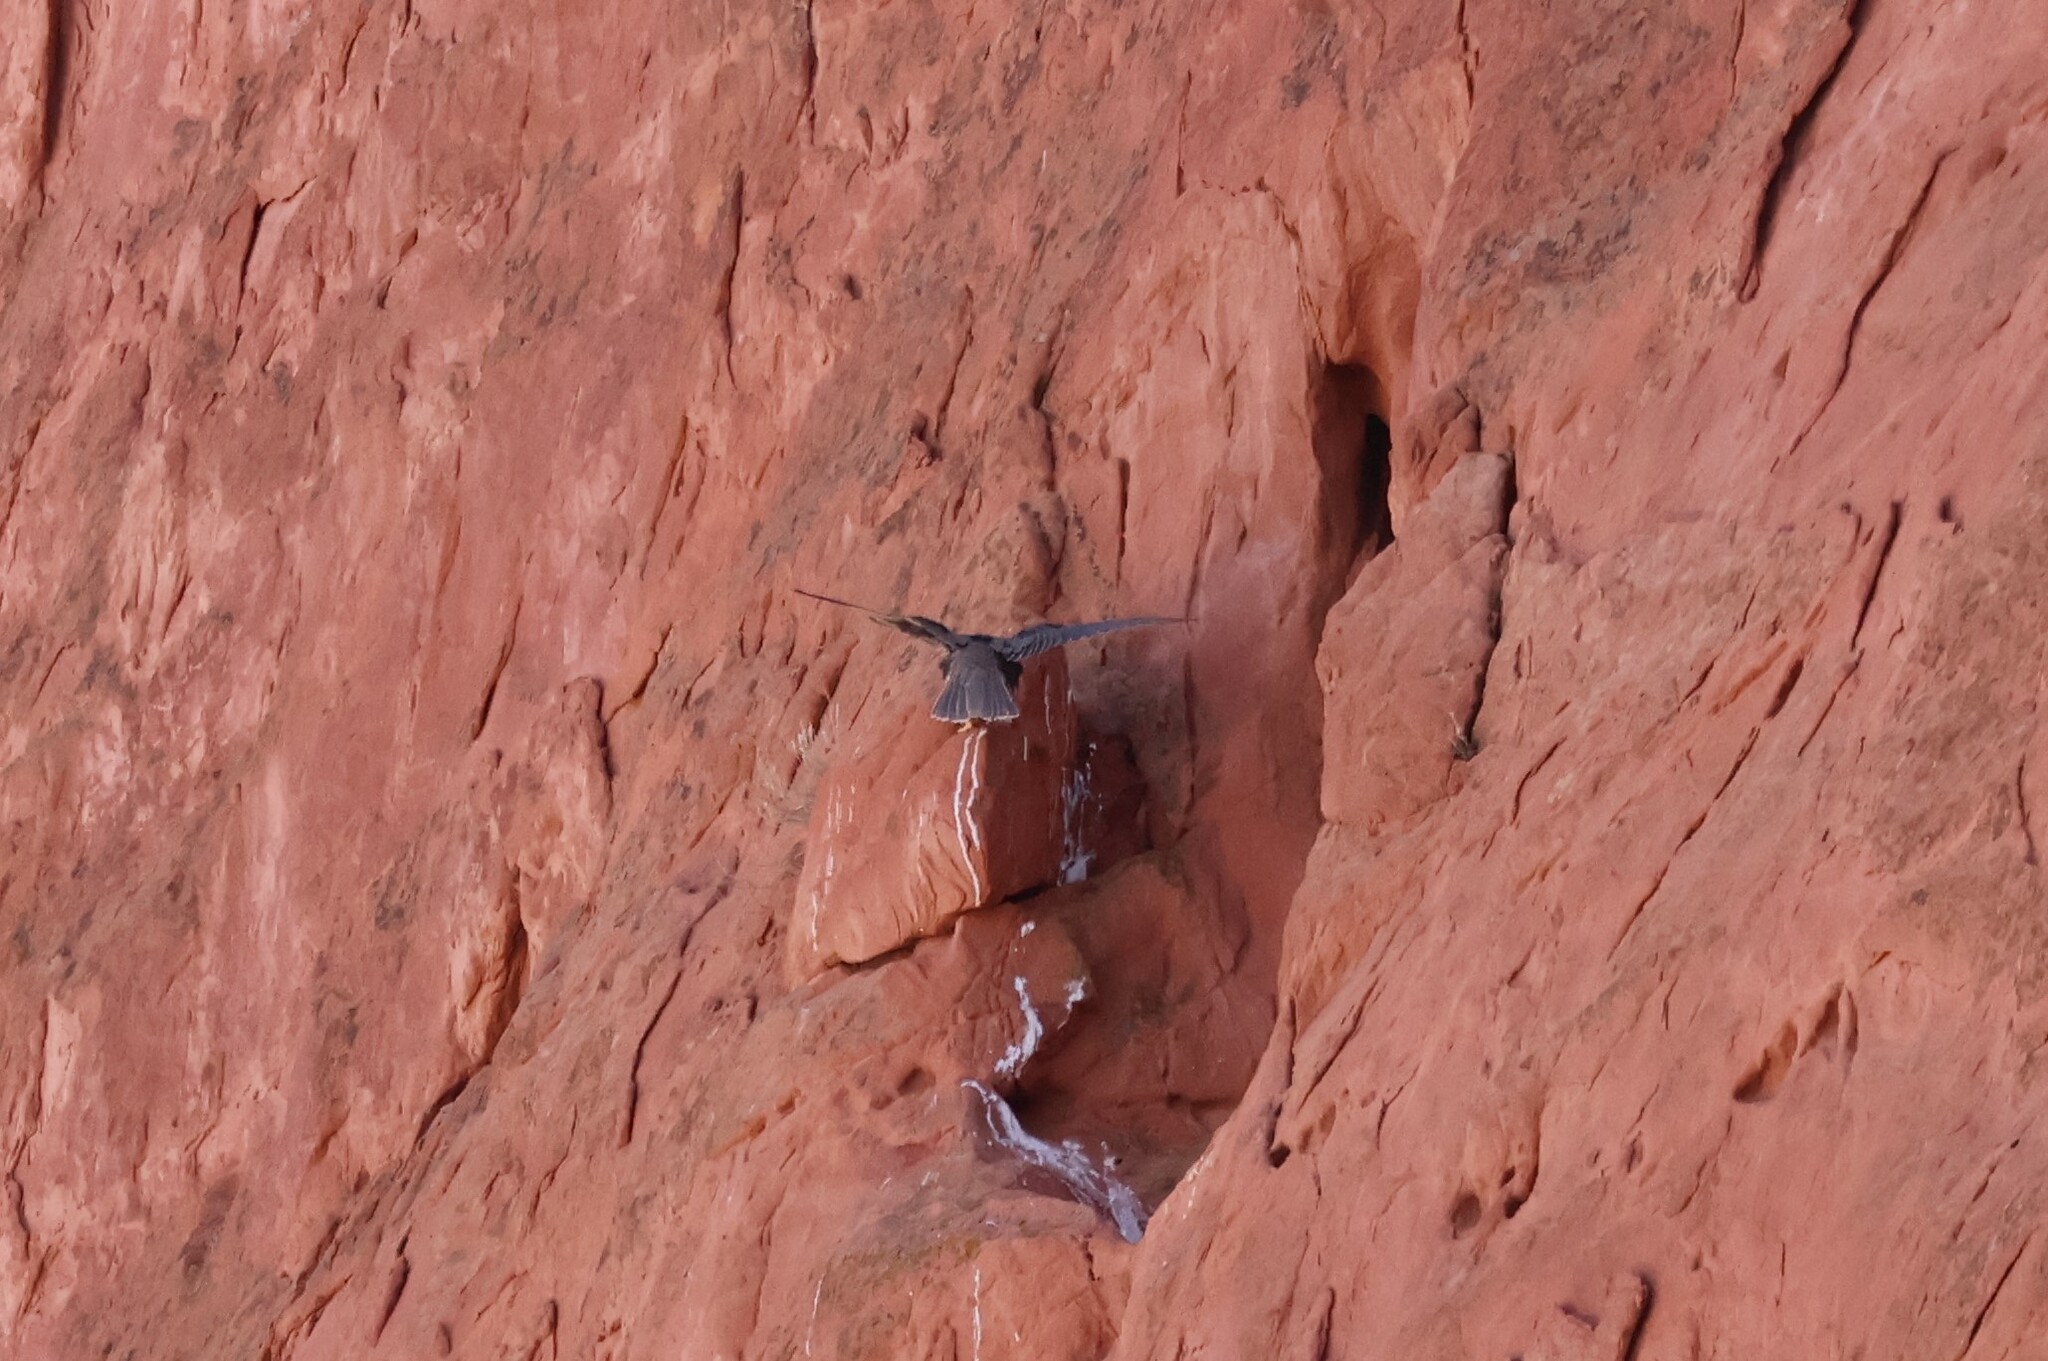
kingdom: Animalia
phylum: Chordata
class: Aves
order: Falconiformes
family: Falconidae
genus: Falco
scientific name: Falco mexicanus
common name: Prairie falcon
